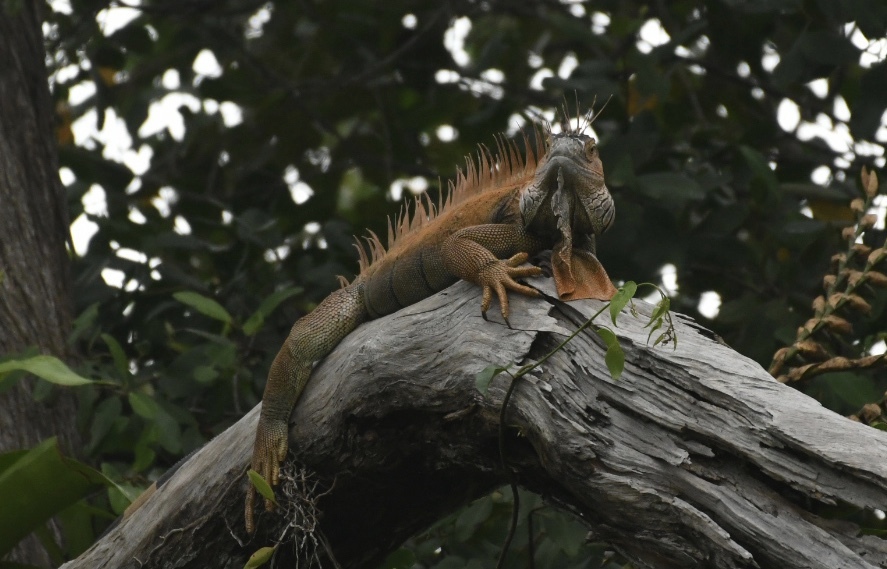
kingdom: Animalia
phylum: Chordata
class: Squamata
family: Iguanidae
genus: Iguana
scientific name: Iguana iguana
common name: Green iguana
